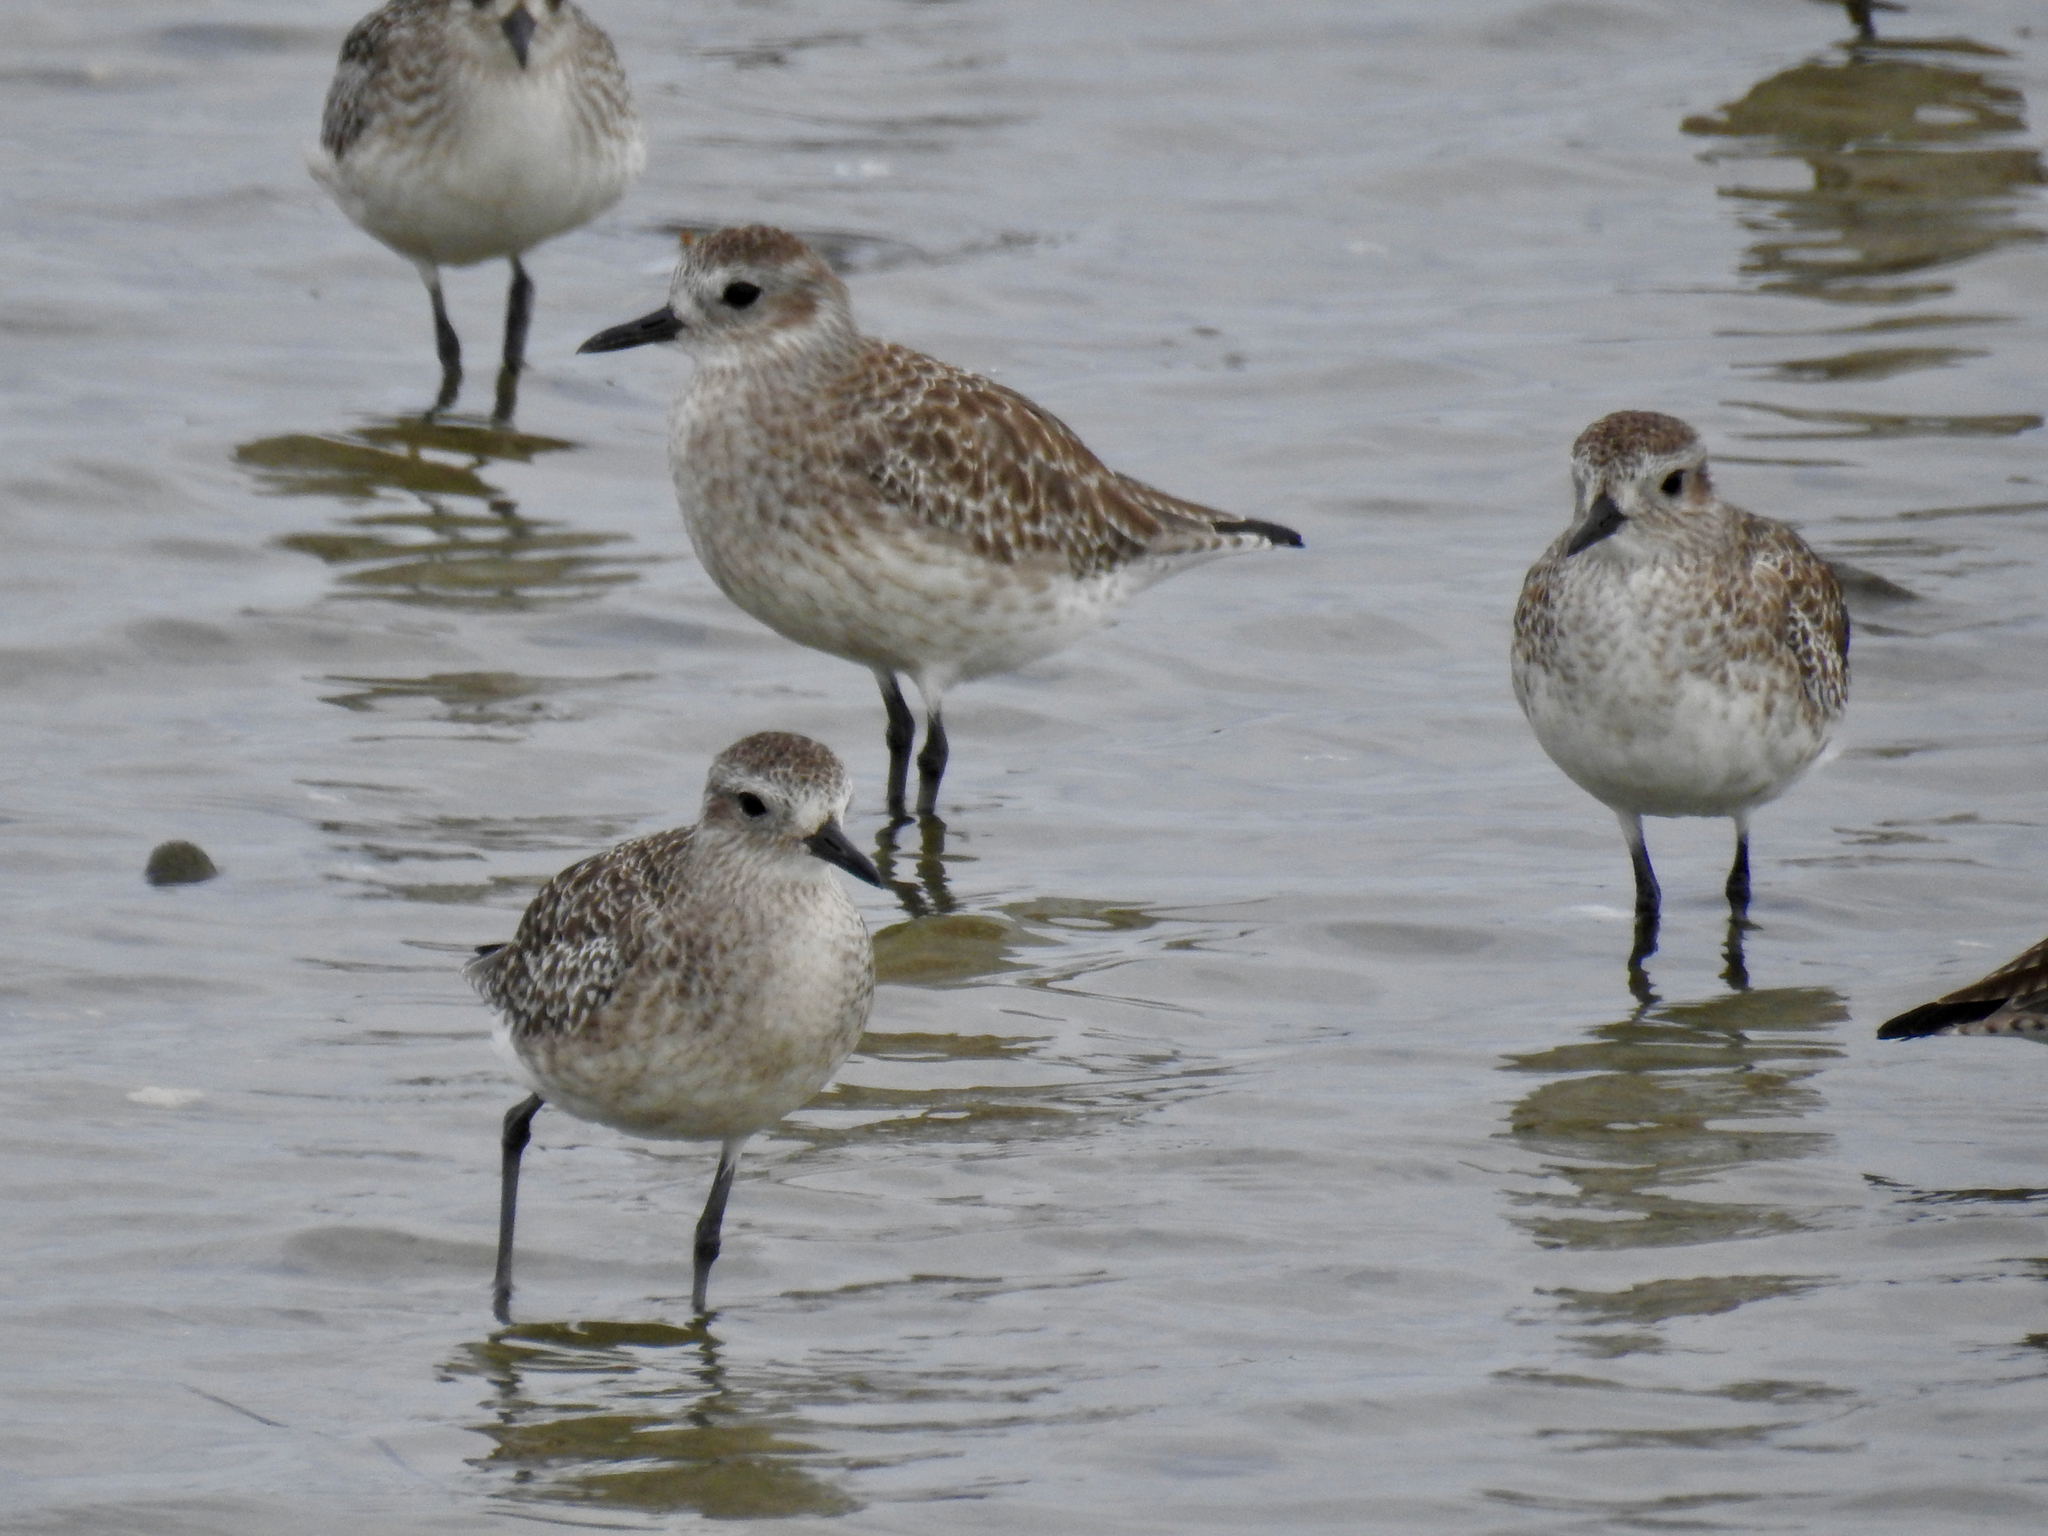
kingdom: Animalia
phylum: Chordata
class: Aves
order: Charadriiformes
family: Charadriidae
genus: Pluvialis
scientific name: Pluvialis squatarola
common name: Grey plover
